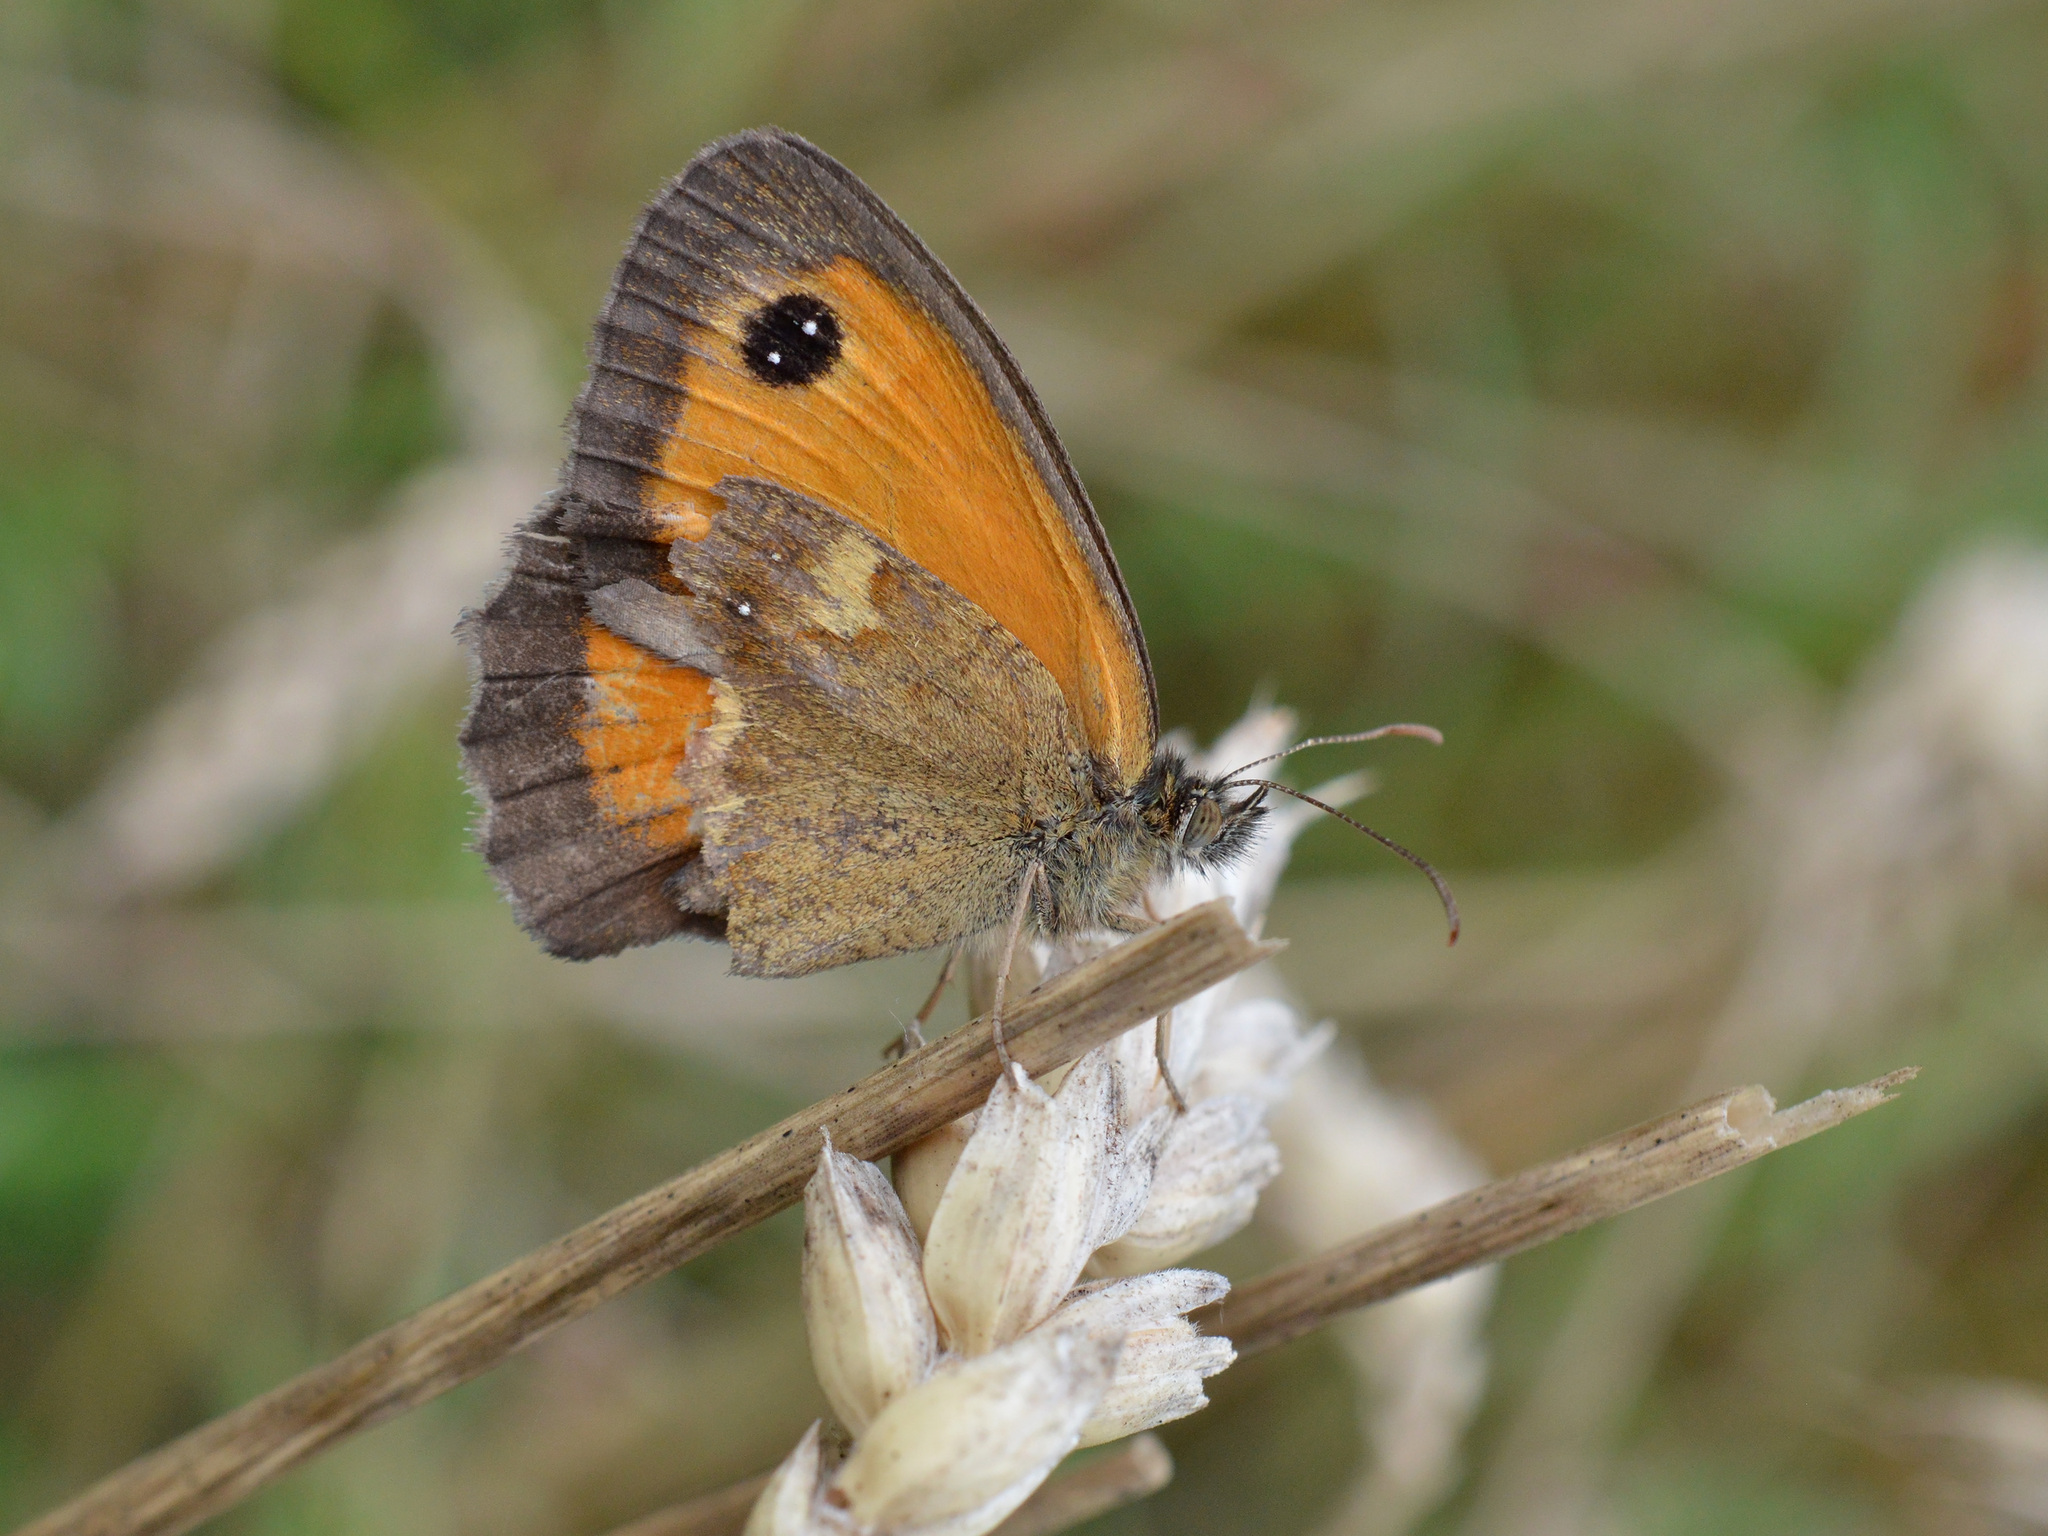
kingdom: Animalia
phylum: Arthropoda
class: Insecta
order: Lepidoptera
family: Nymphalidae
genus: Pyronia
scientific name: Pyronia tithonus
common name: Gatekeeper
